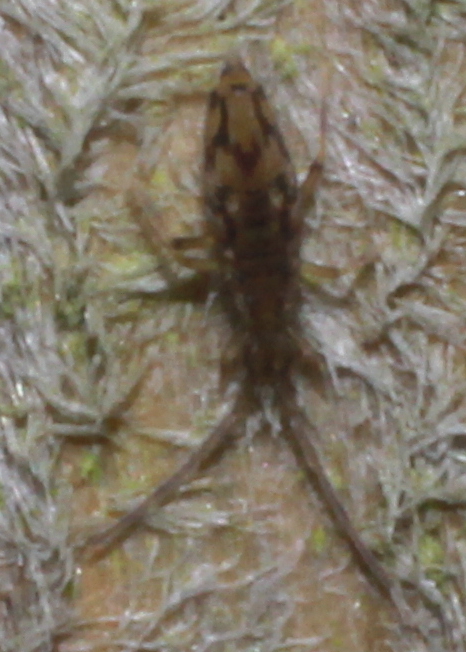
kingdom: Animalia
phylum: Arthropoda
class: Collembola
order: Entomobryomorpha
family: Entomobryidae
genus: Entomobrya
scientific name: Entomobrya intermedia
